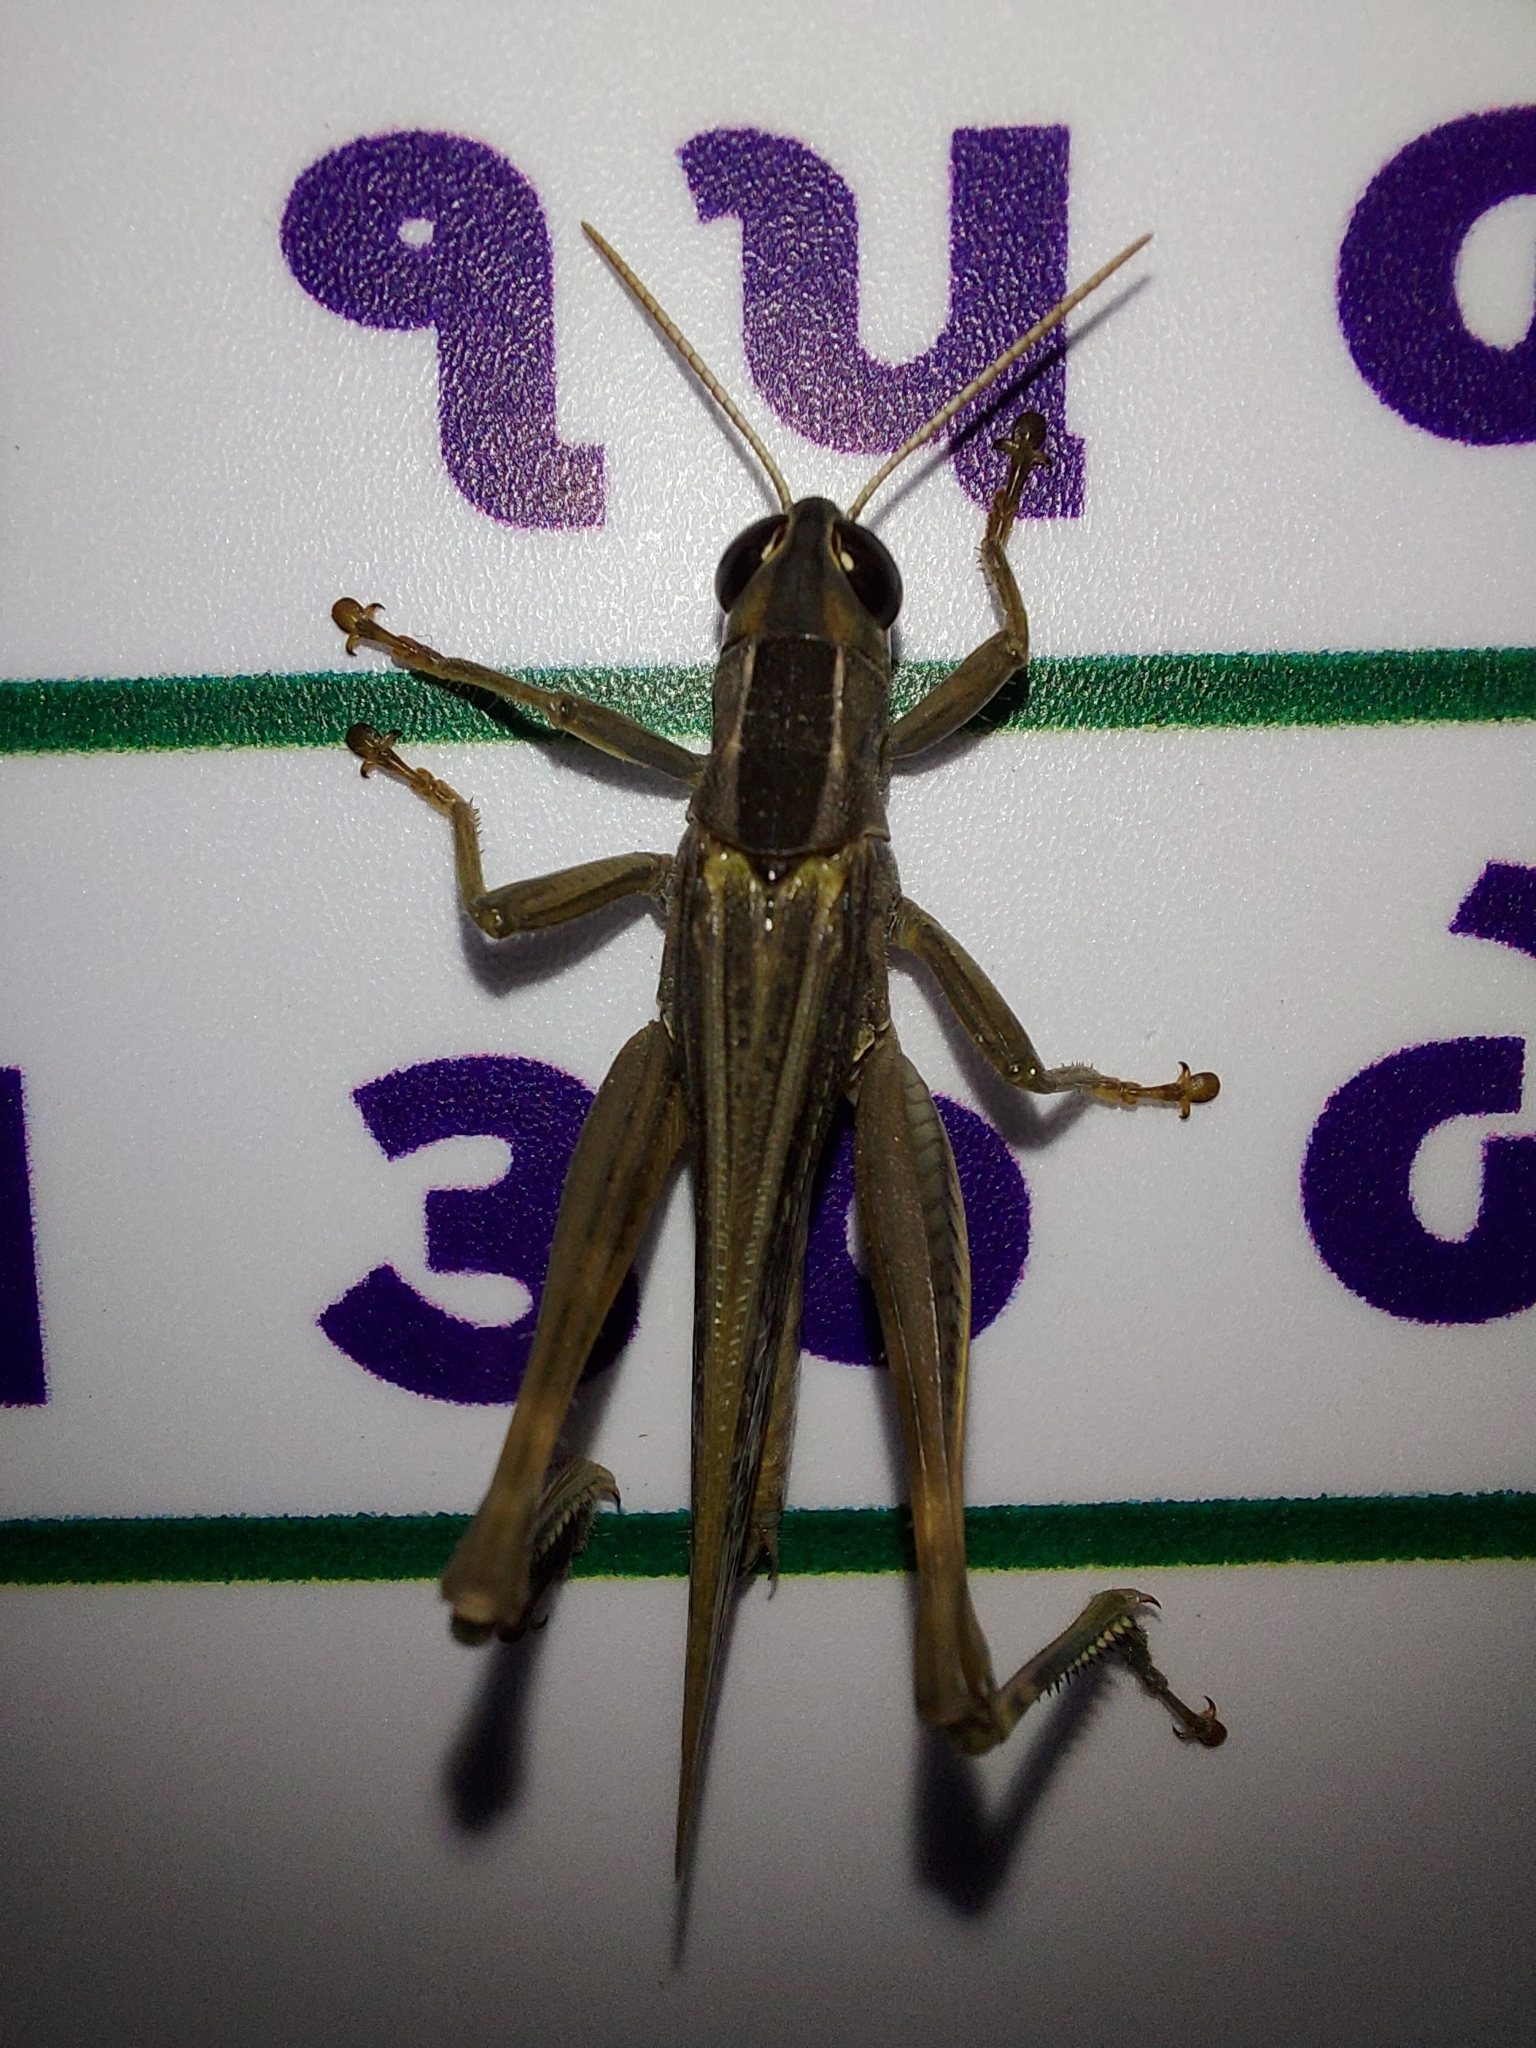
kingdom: Animalia
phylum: Arthropoda
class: Insecta
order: Orthoptera
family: Acrididae
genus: Eyprepocnemis
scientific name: Eyprepocnemis alacris
